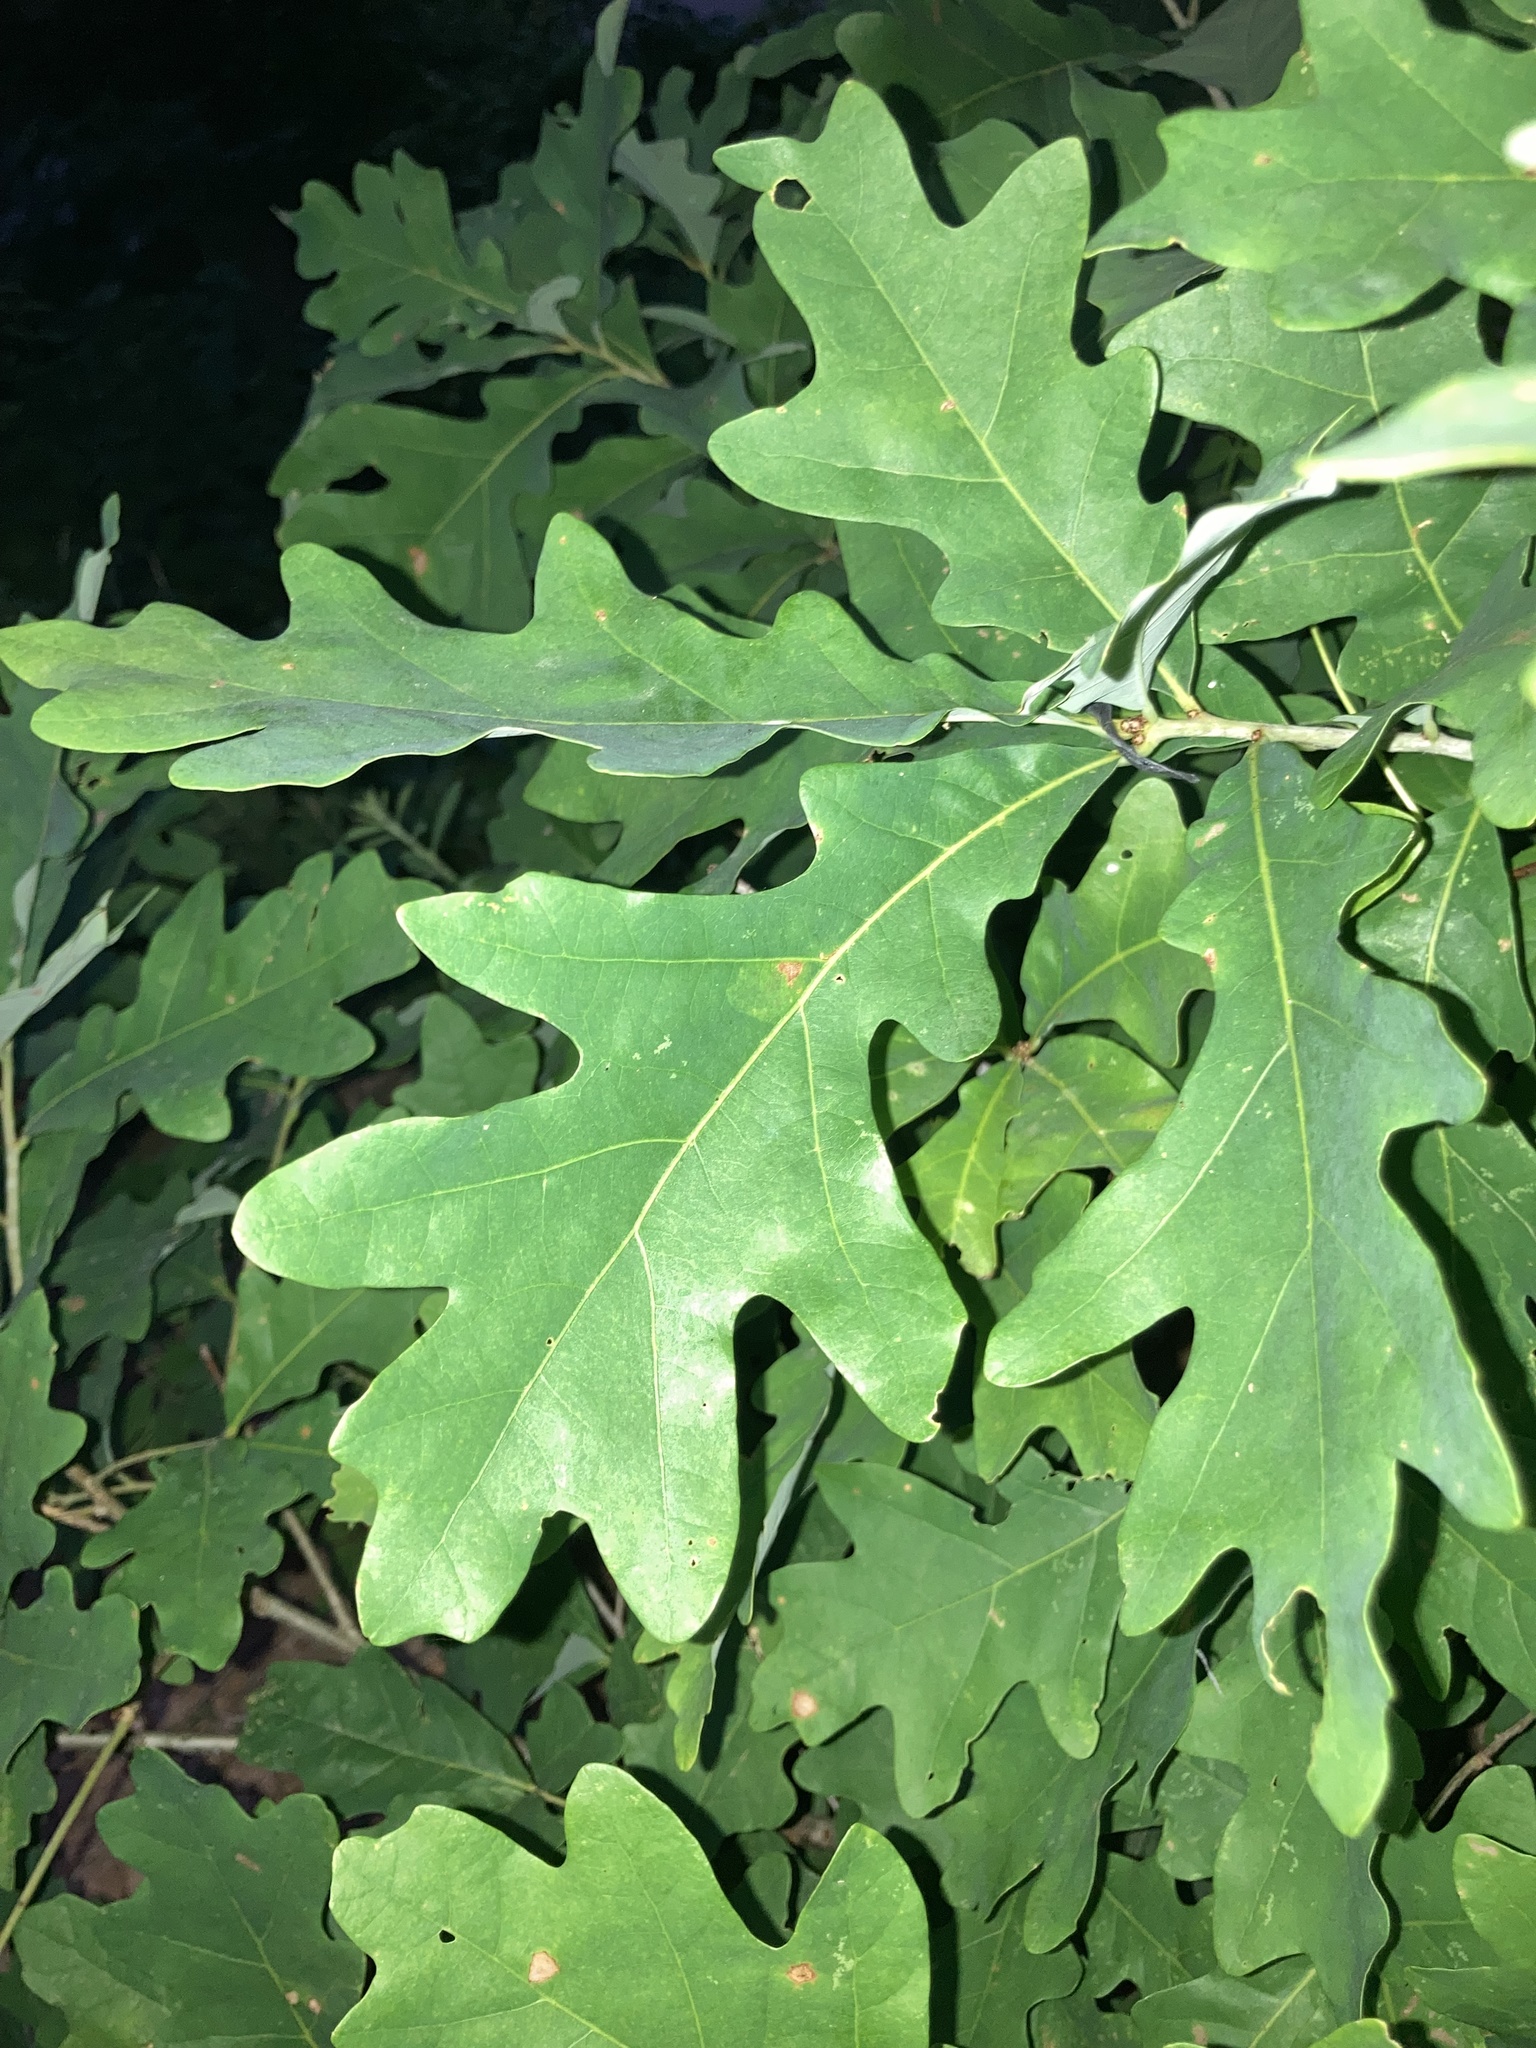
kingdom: Plantae
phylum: Tracheophyta
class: Magnoliopsida
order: Fagales
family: Fagaceae
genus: Quercus
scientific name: Quercus alba
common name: White oak
